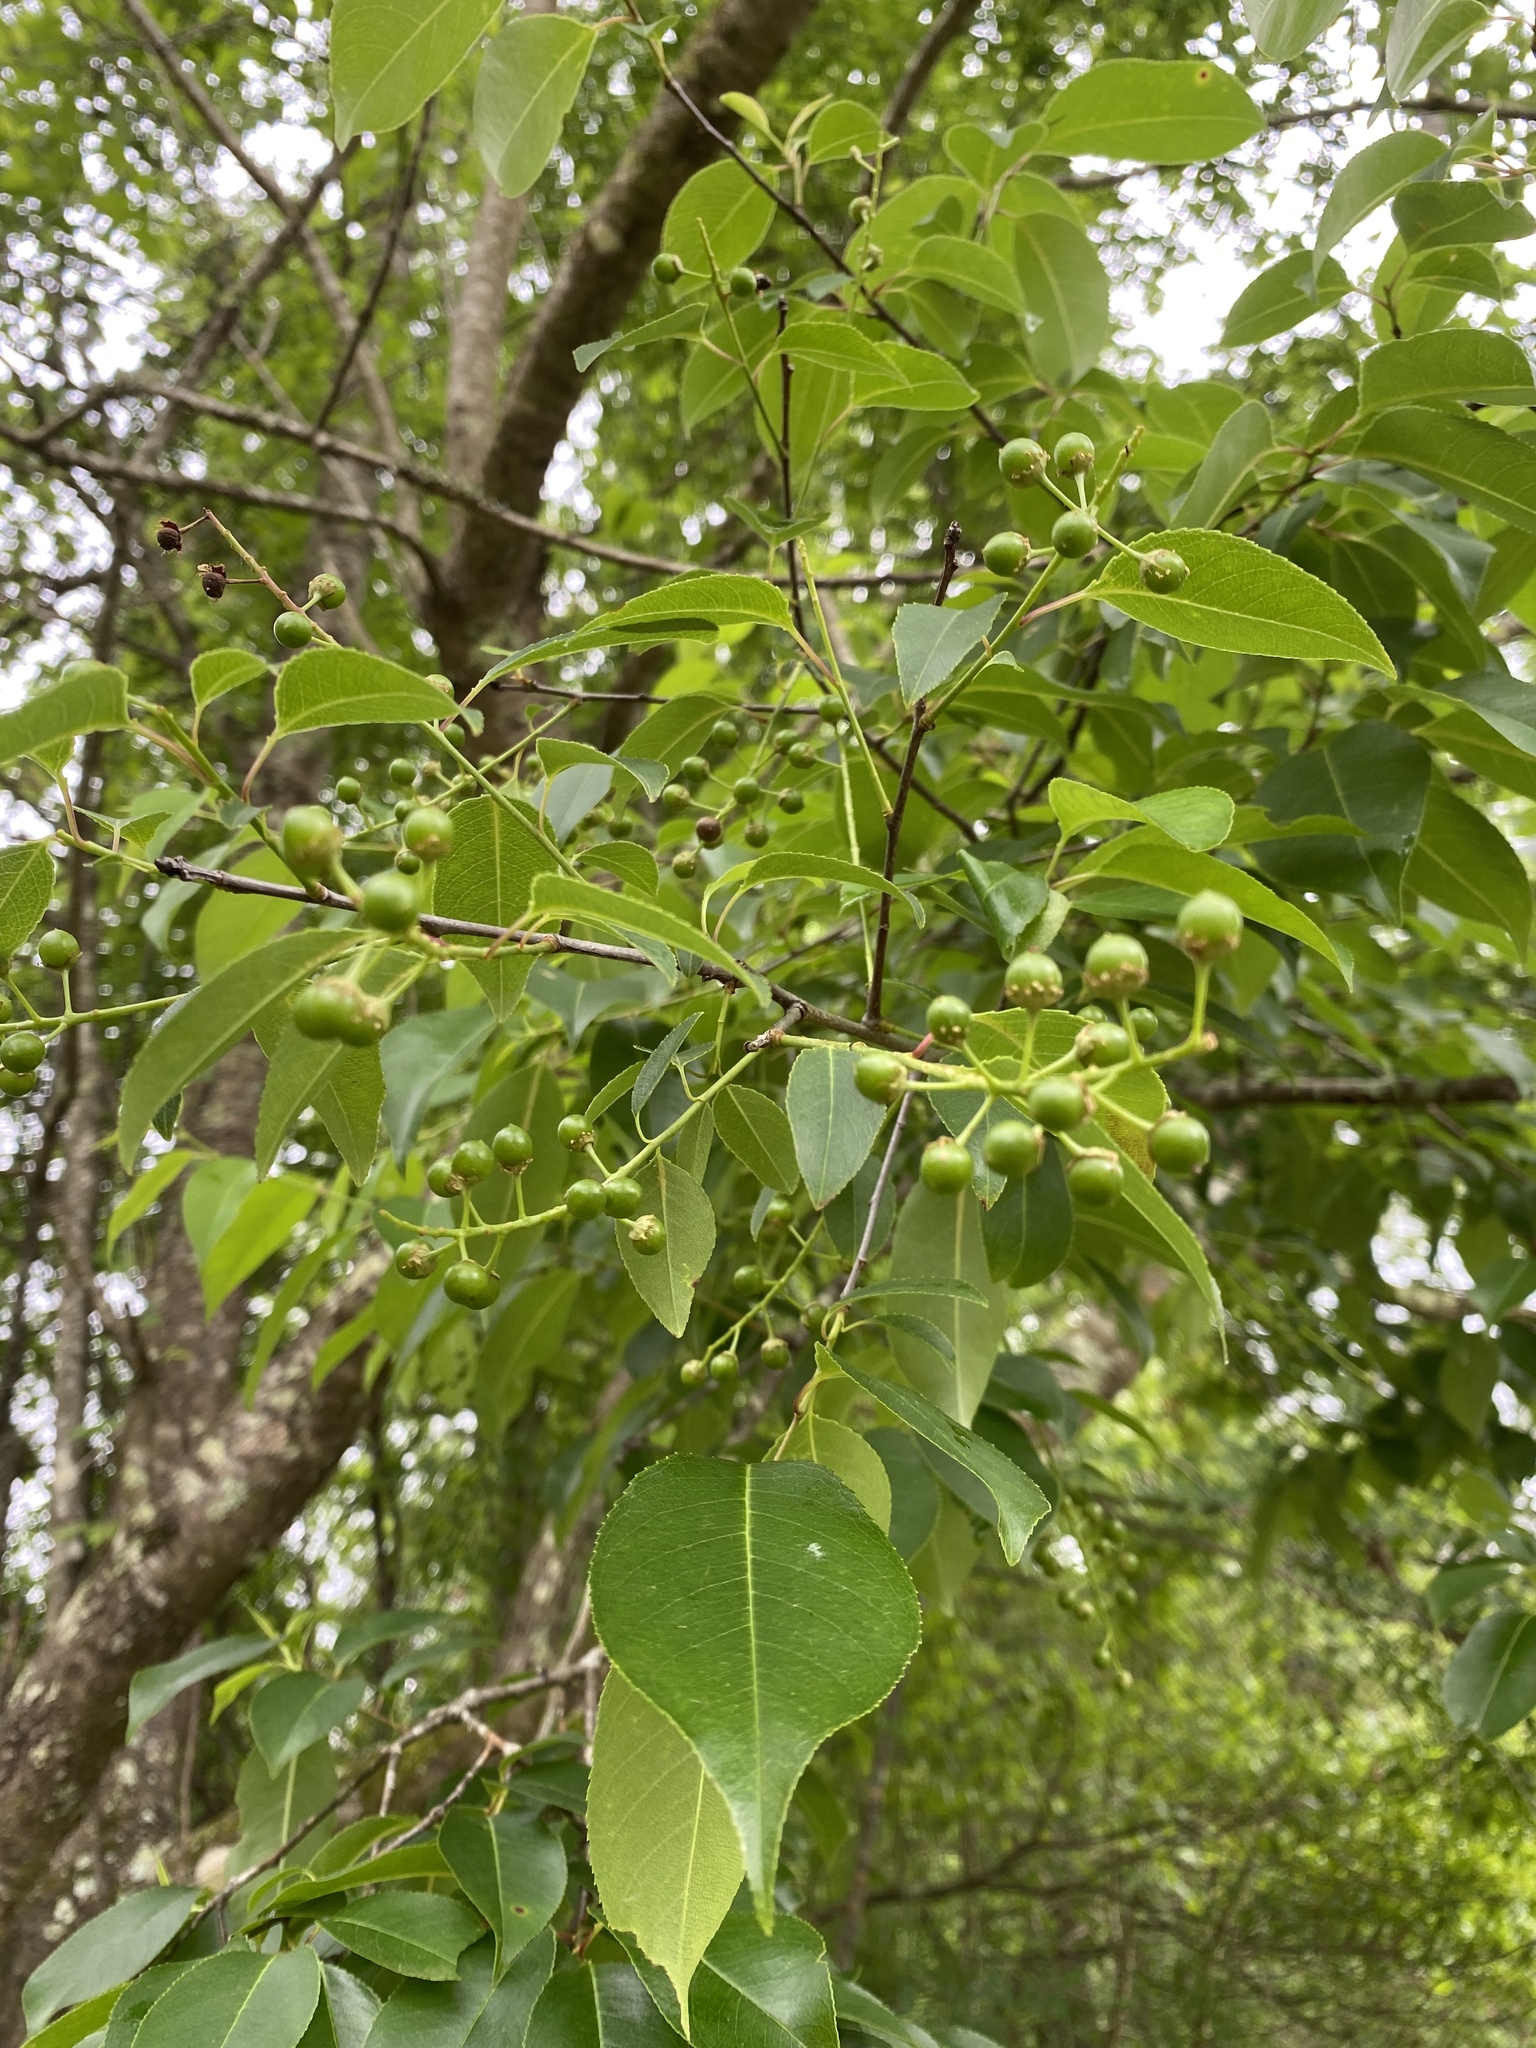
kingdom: Plantae
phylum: Tracheophyta
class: Magnoliopsida
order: Rosales
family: Rosaceae
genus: Prunus
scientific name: Prunus serotina
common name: Black cherry
